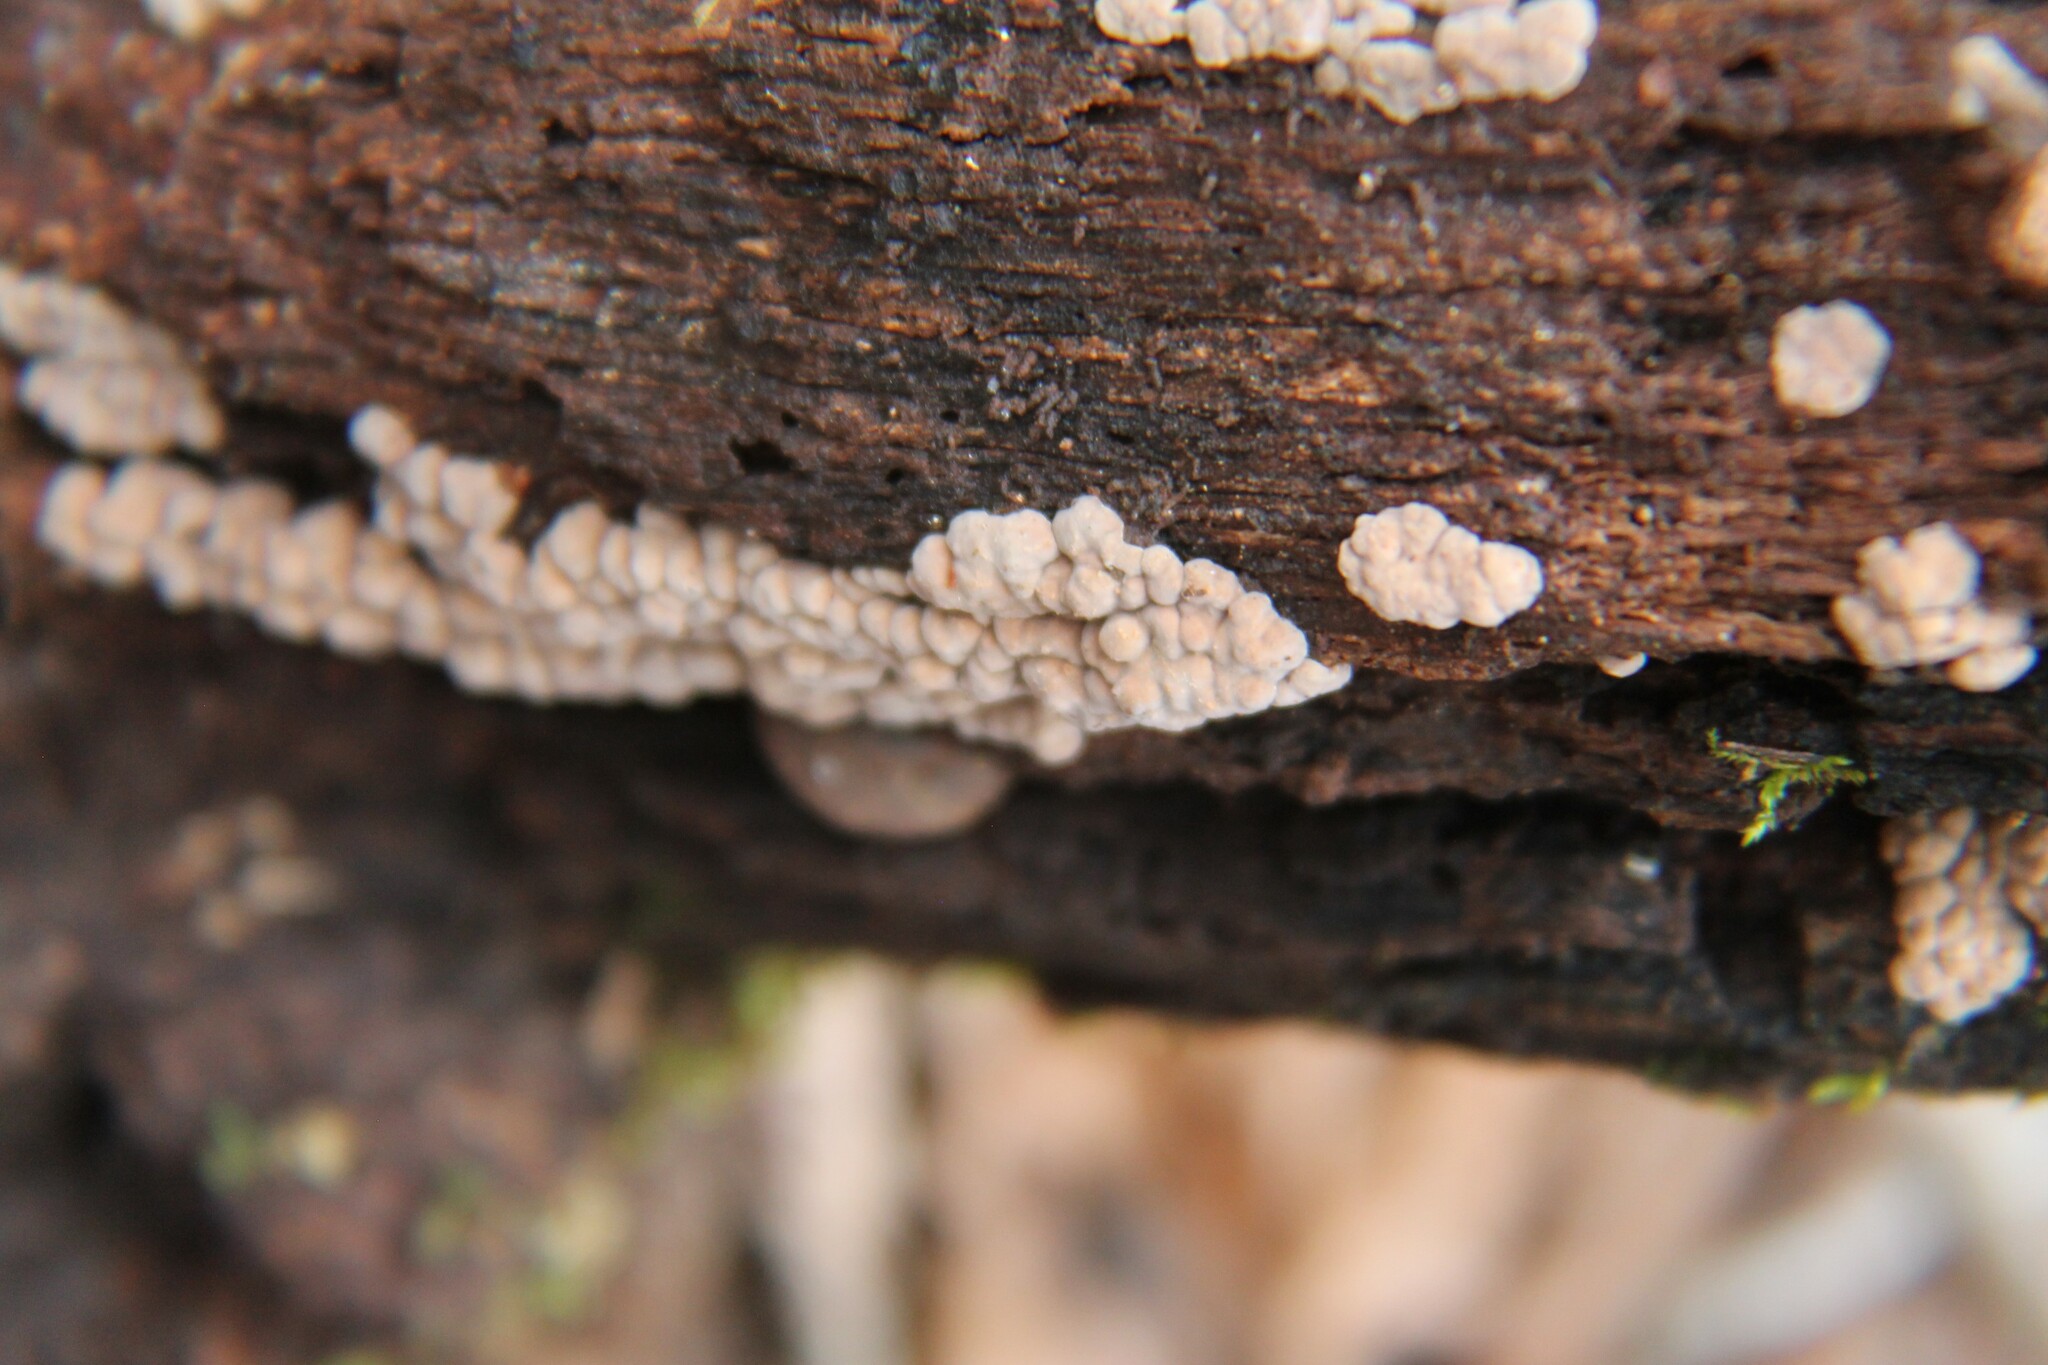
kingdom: Fungi
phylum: Basidiomycota
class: Agaricomycetes
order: Russulales
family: Stereaceae
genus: Xylobolus
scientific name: Xylobolus frustulatus
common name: Ceramic parchment
